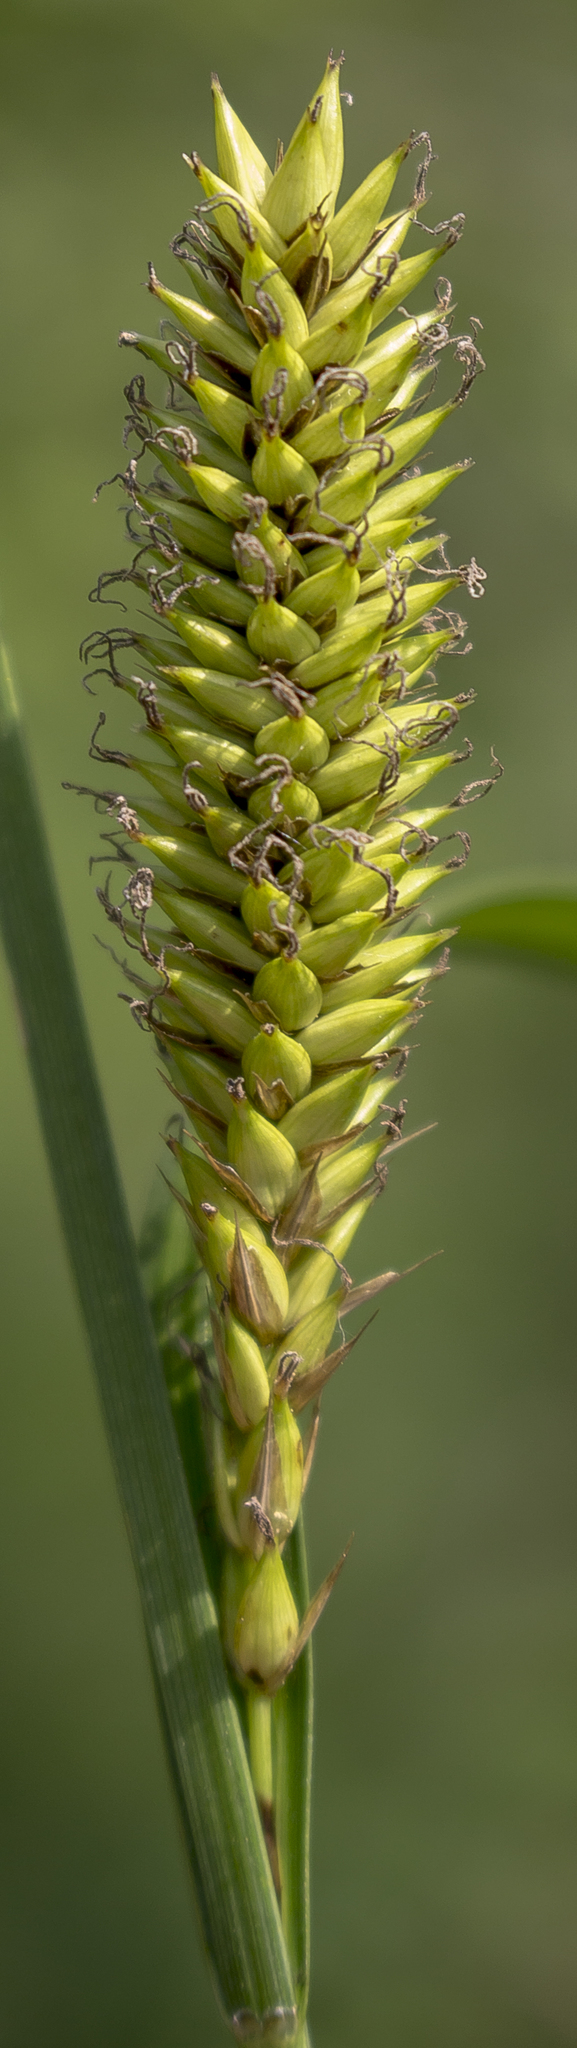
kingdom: Plantae
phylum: Tracheophyta
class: Liliopsida
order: Poales
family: Cyperaceae
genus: Carex
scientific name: Carex lacustris
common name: Common lake sedge
